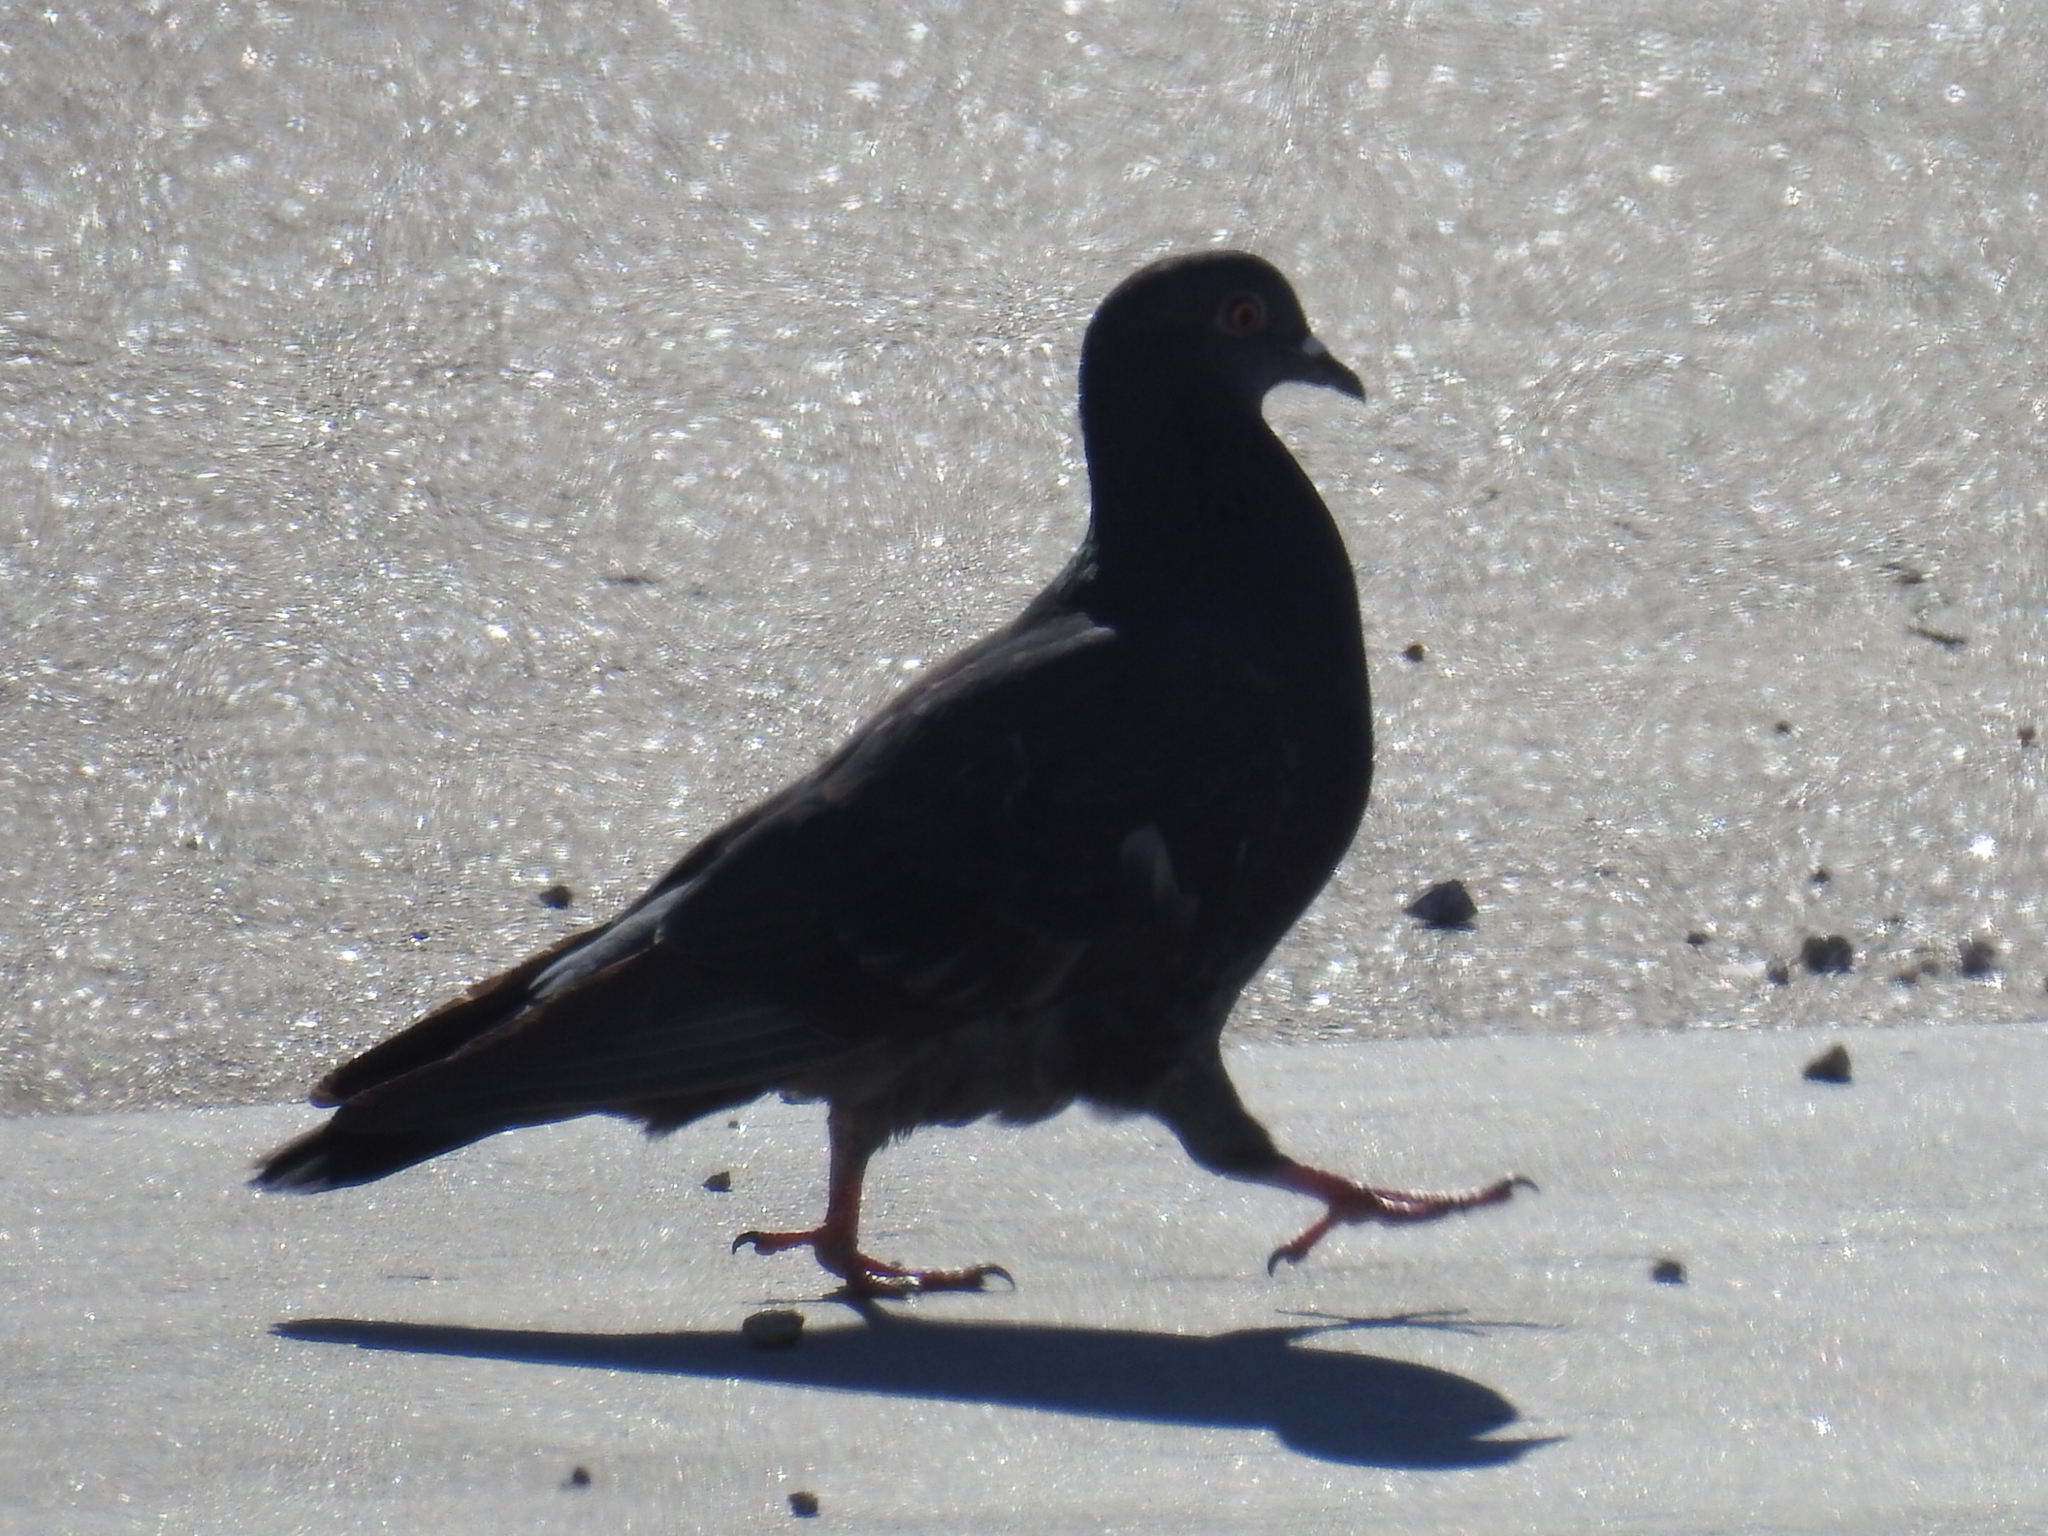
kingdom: Animalia
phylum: Chordata
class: Aves
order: Columbiformes
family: Columbidae
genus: Columba
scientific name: Columba livia
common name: Rock pigeon
